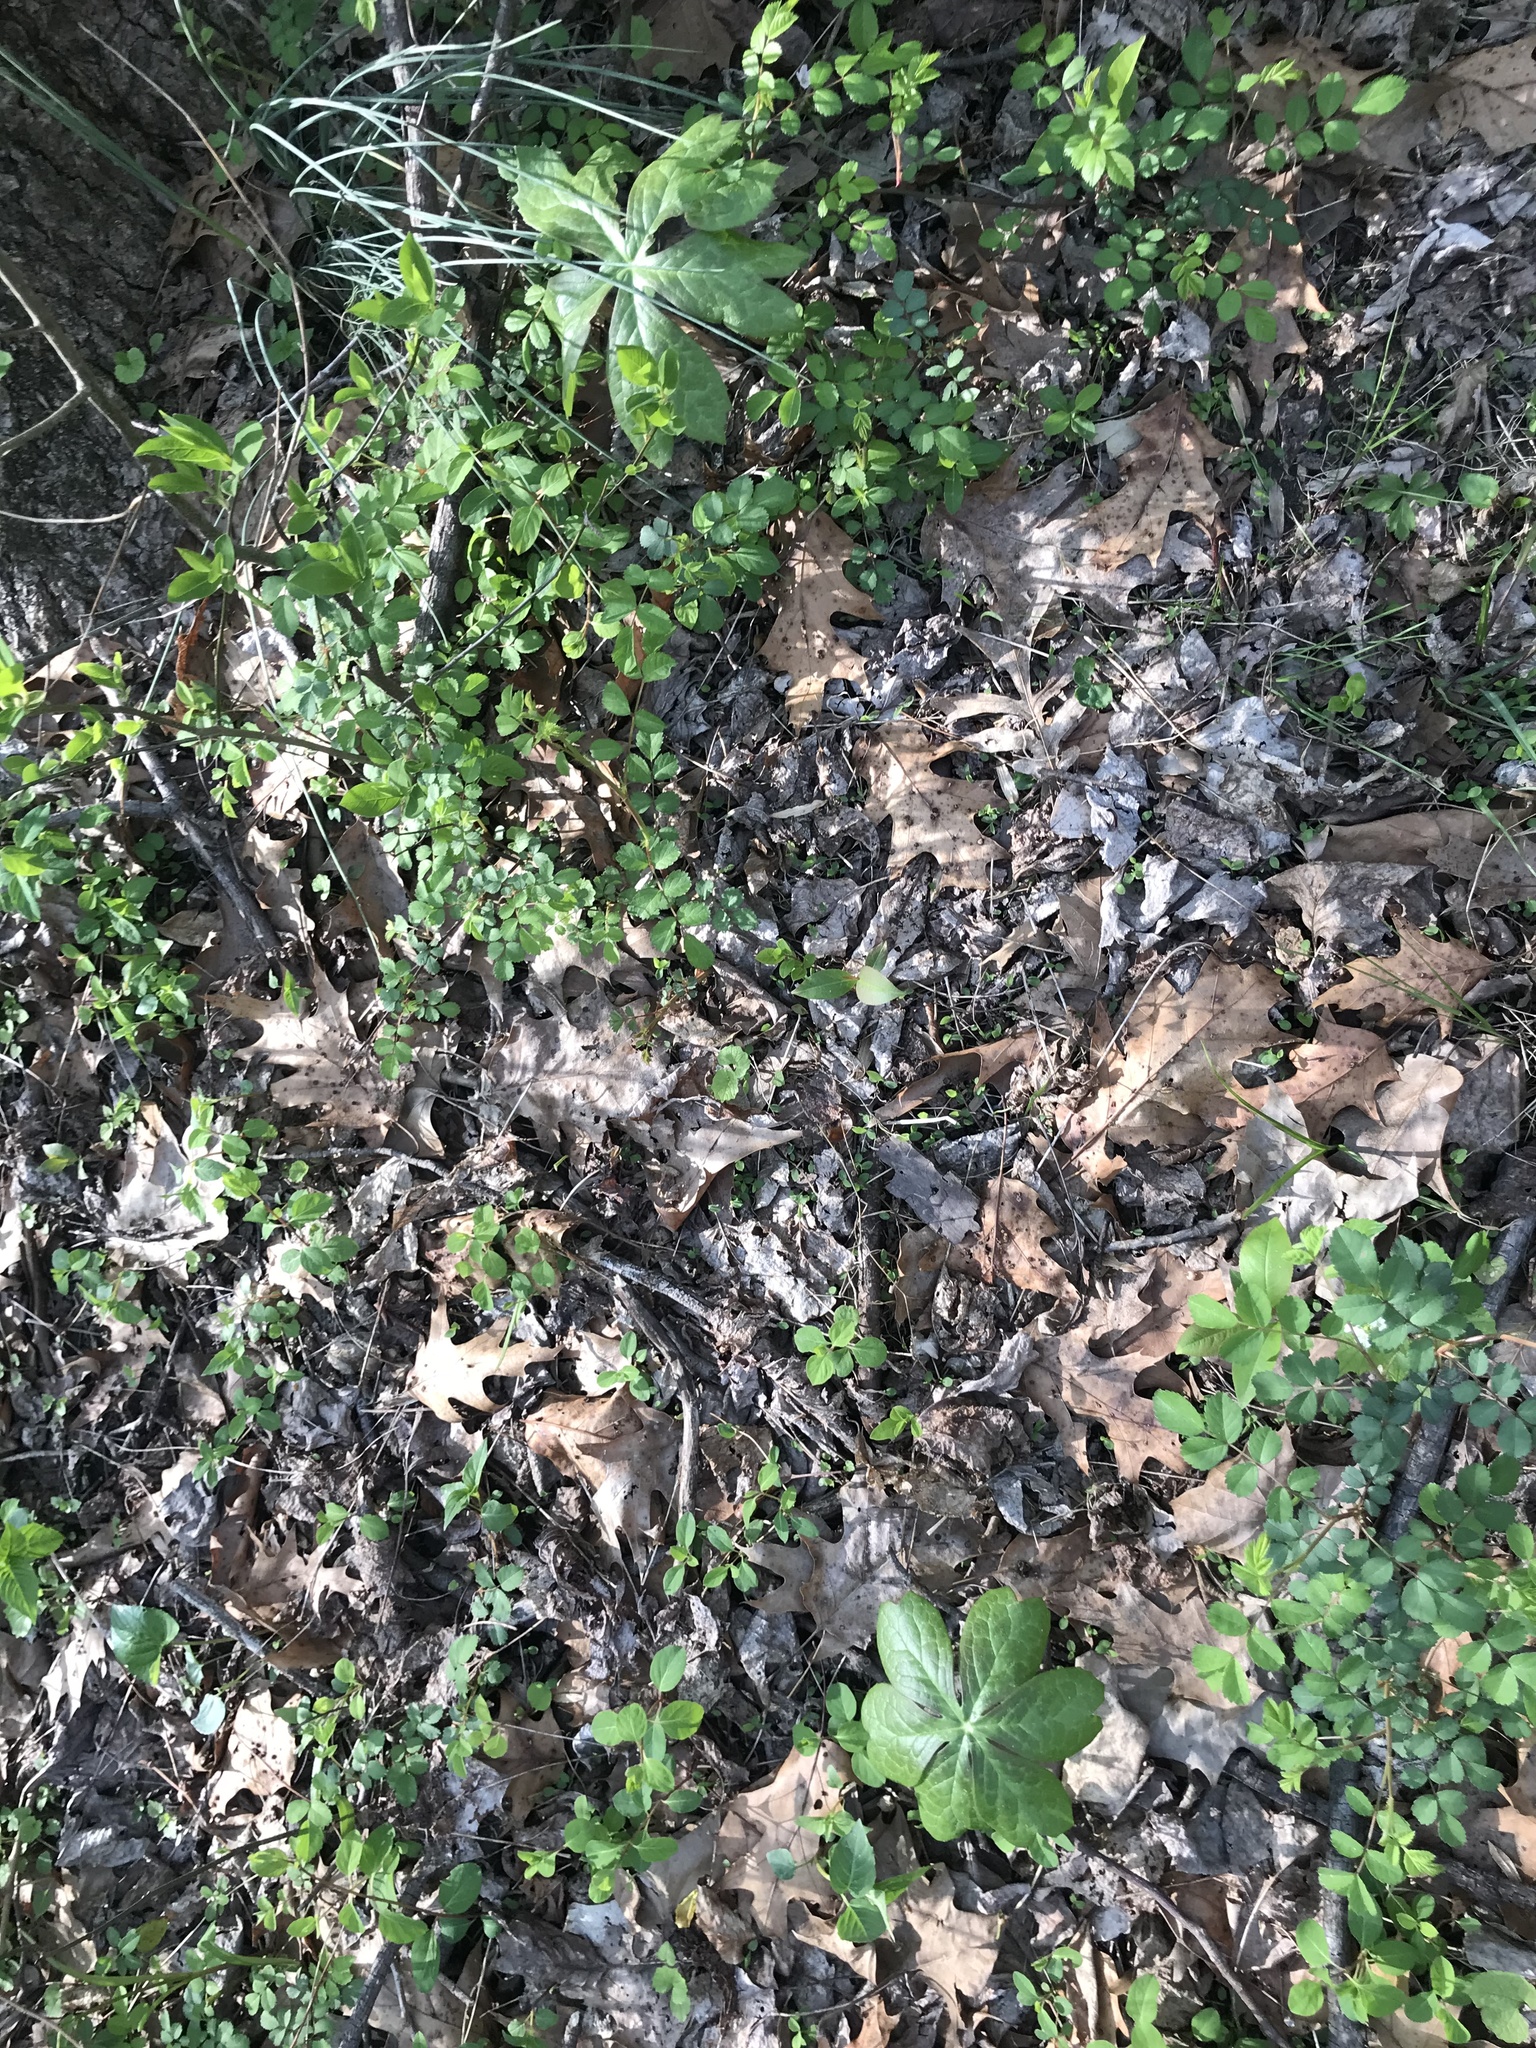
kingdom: Plantae
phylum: Tracheophyta
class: Magnoliopsida
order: Ranunculales
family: Berberidaceae
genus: Podophyllum
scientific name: Podophyllum peltatum
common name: Wild mandrake
